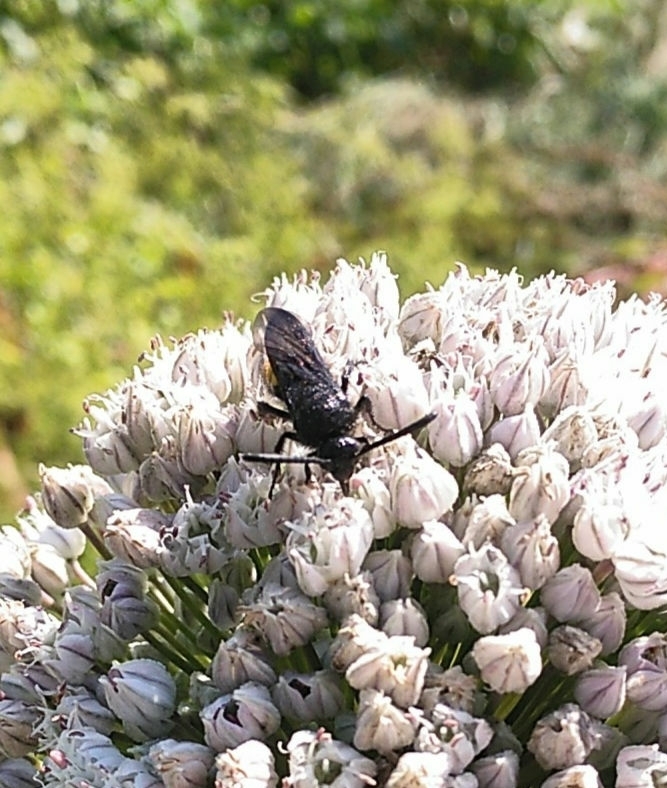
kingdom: Animalia
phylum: Arthropoda
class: Insecta
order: Hymenoptera
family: Scoliidae
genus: Scolia
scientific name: Scolia hirta
